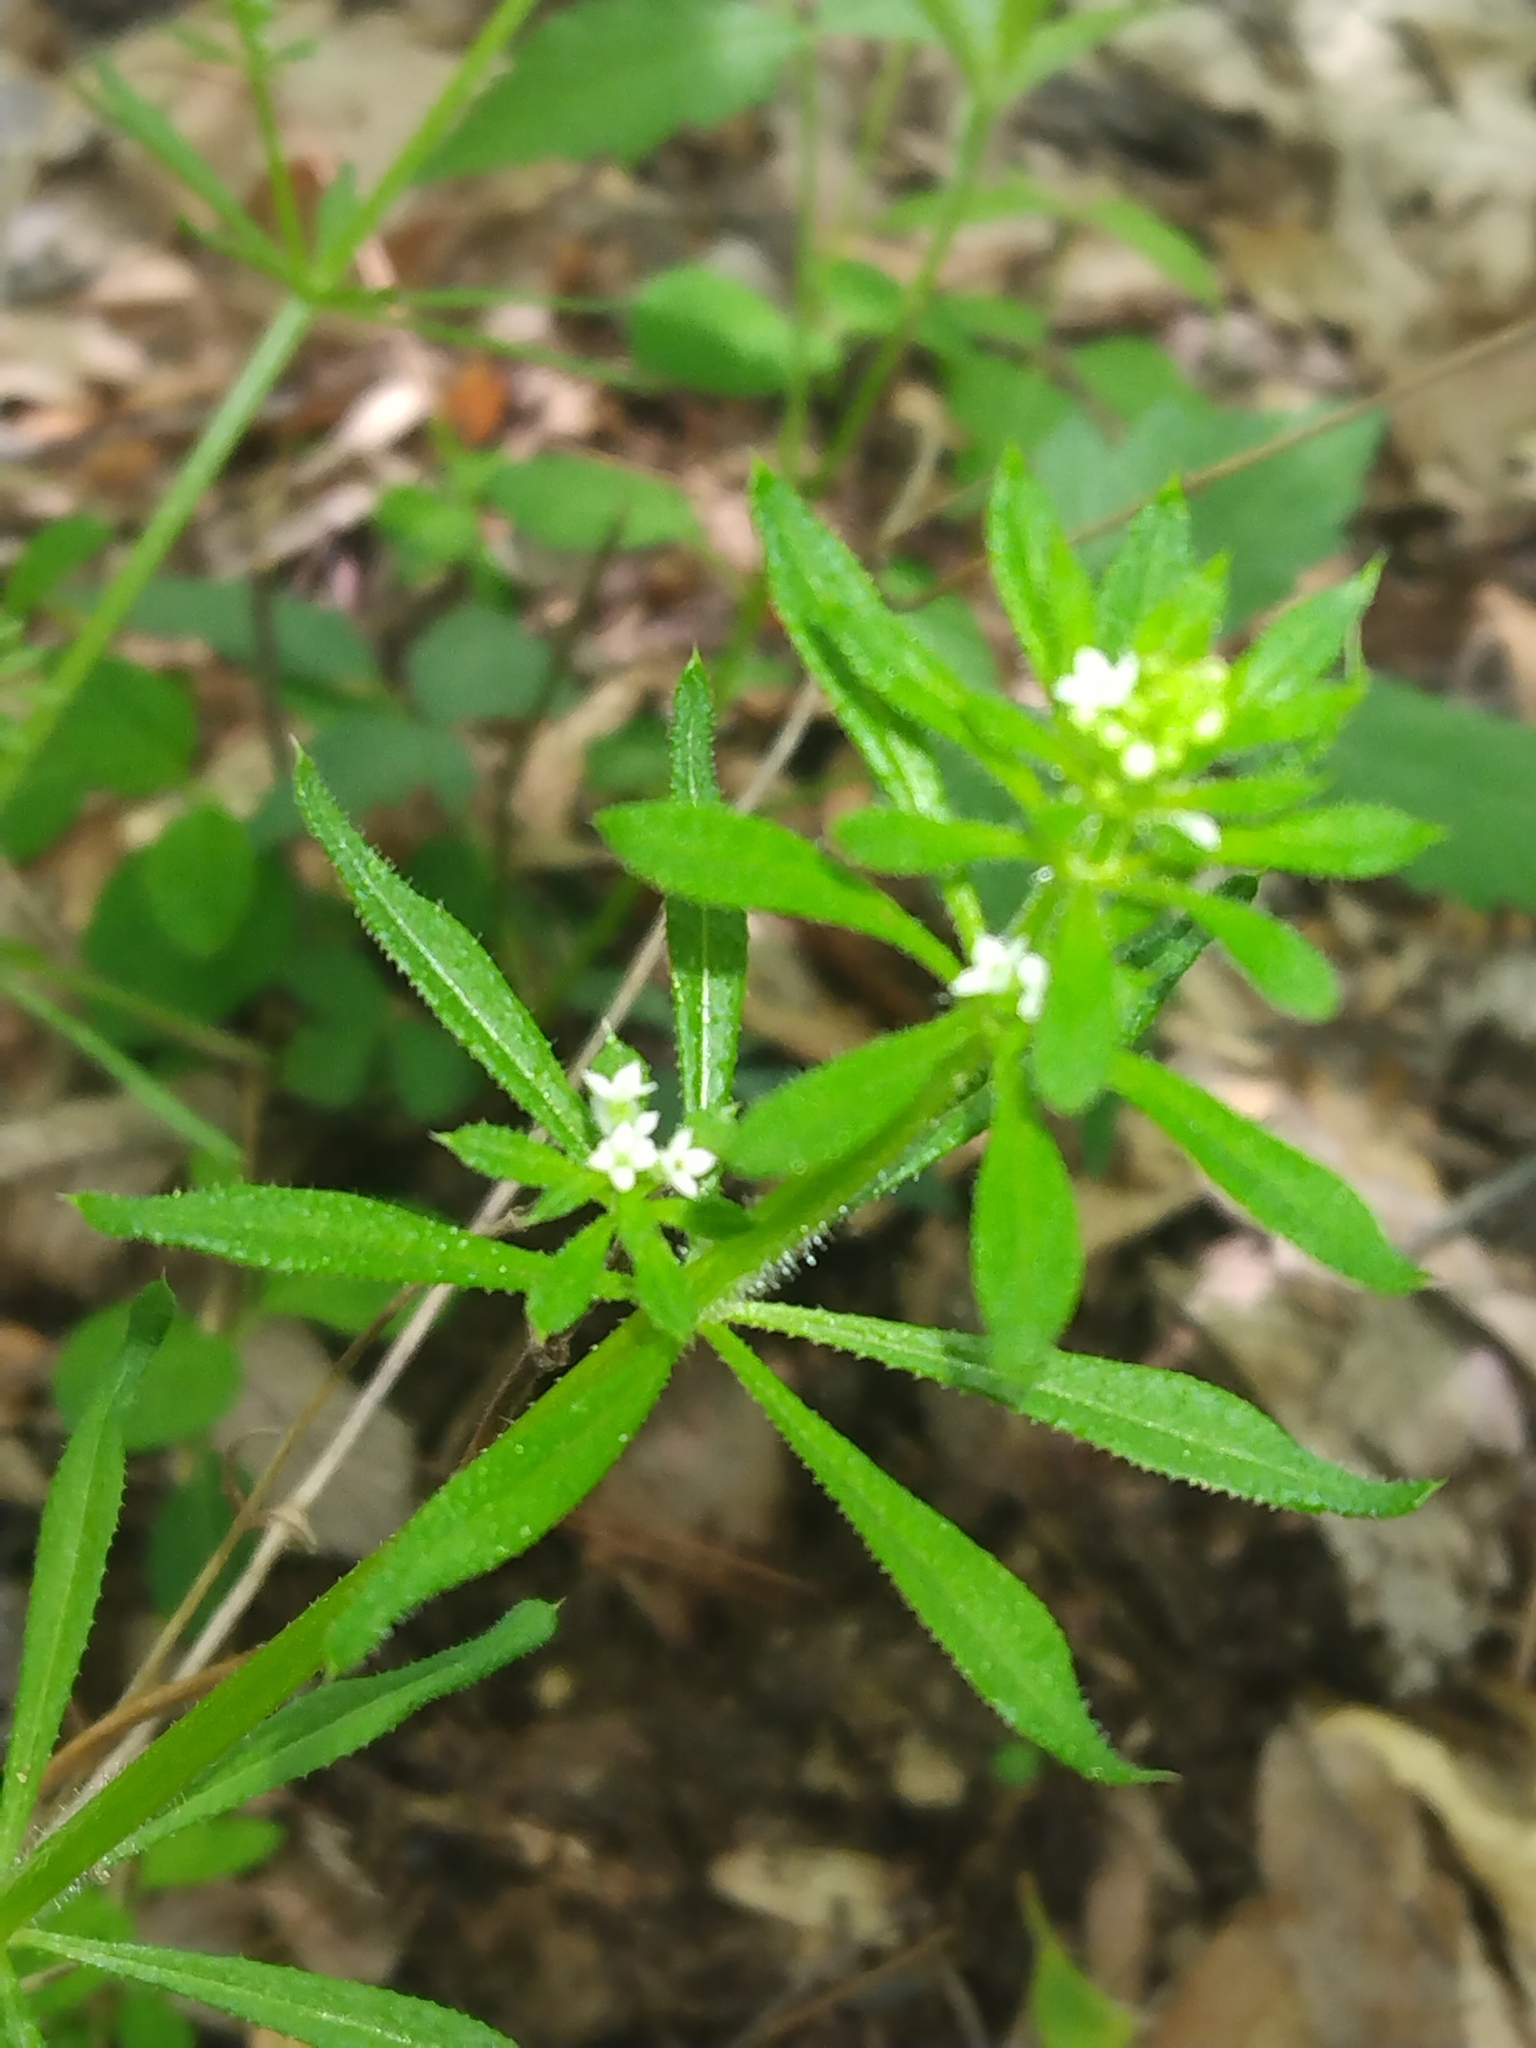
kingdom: Plantae
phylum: Tracheophyta
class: Magnoliopsida
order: Gentianales
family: Rubiaceae
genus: Galium
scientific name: Galium aparine
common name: Cleavers
